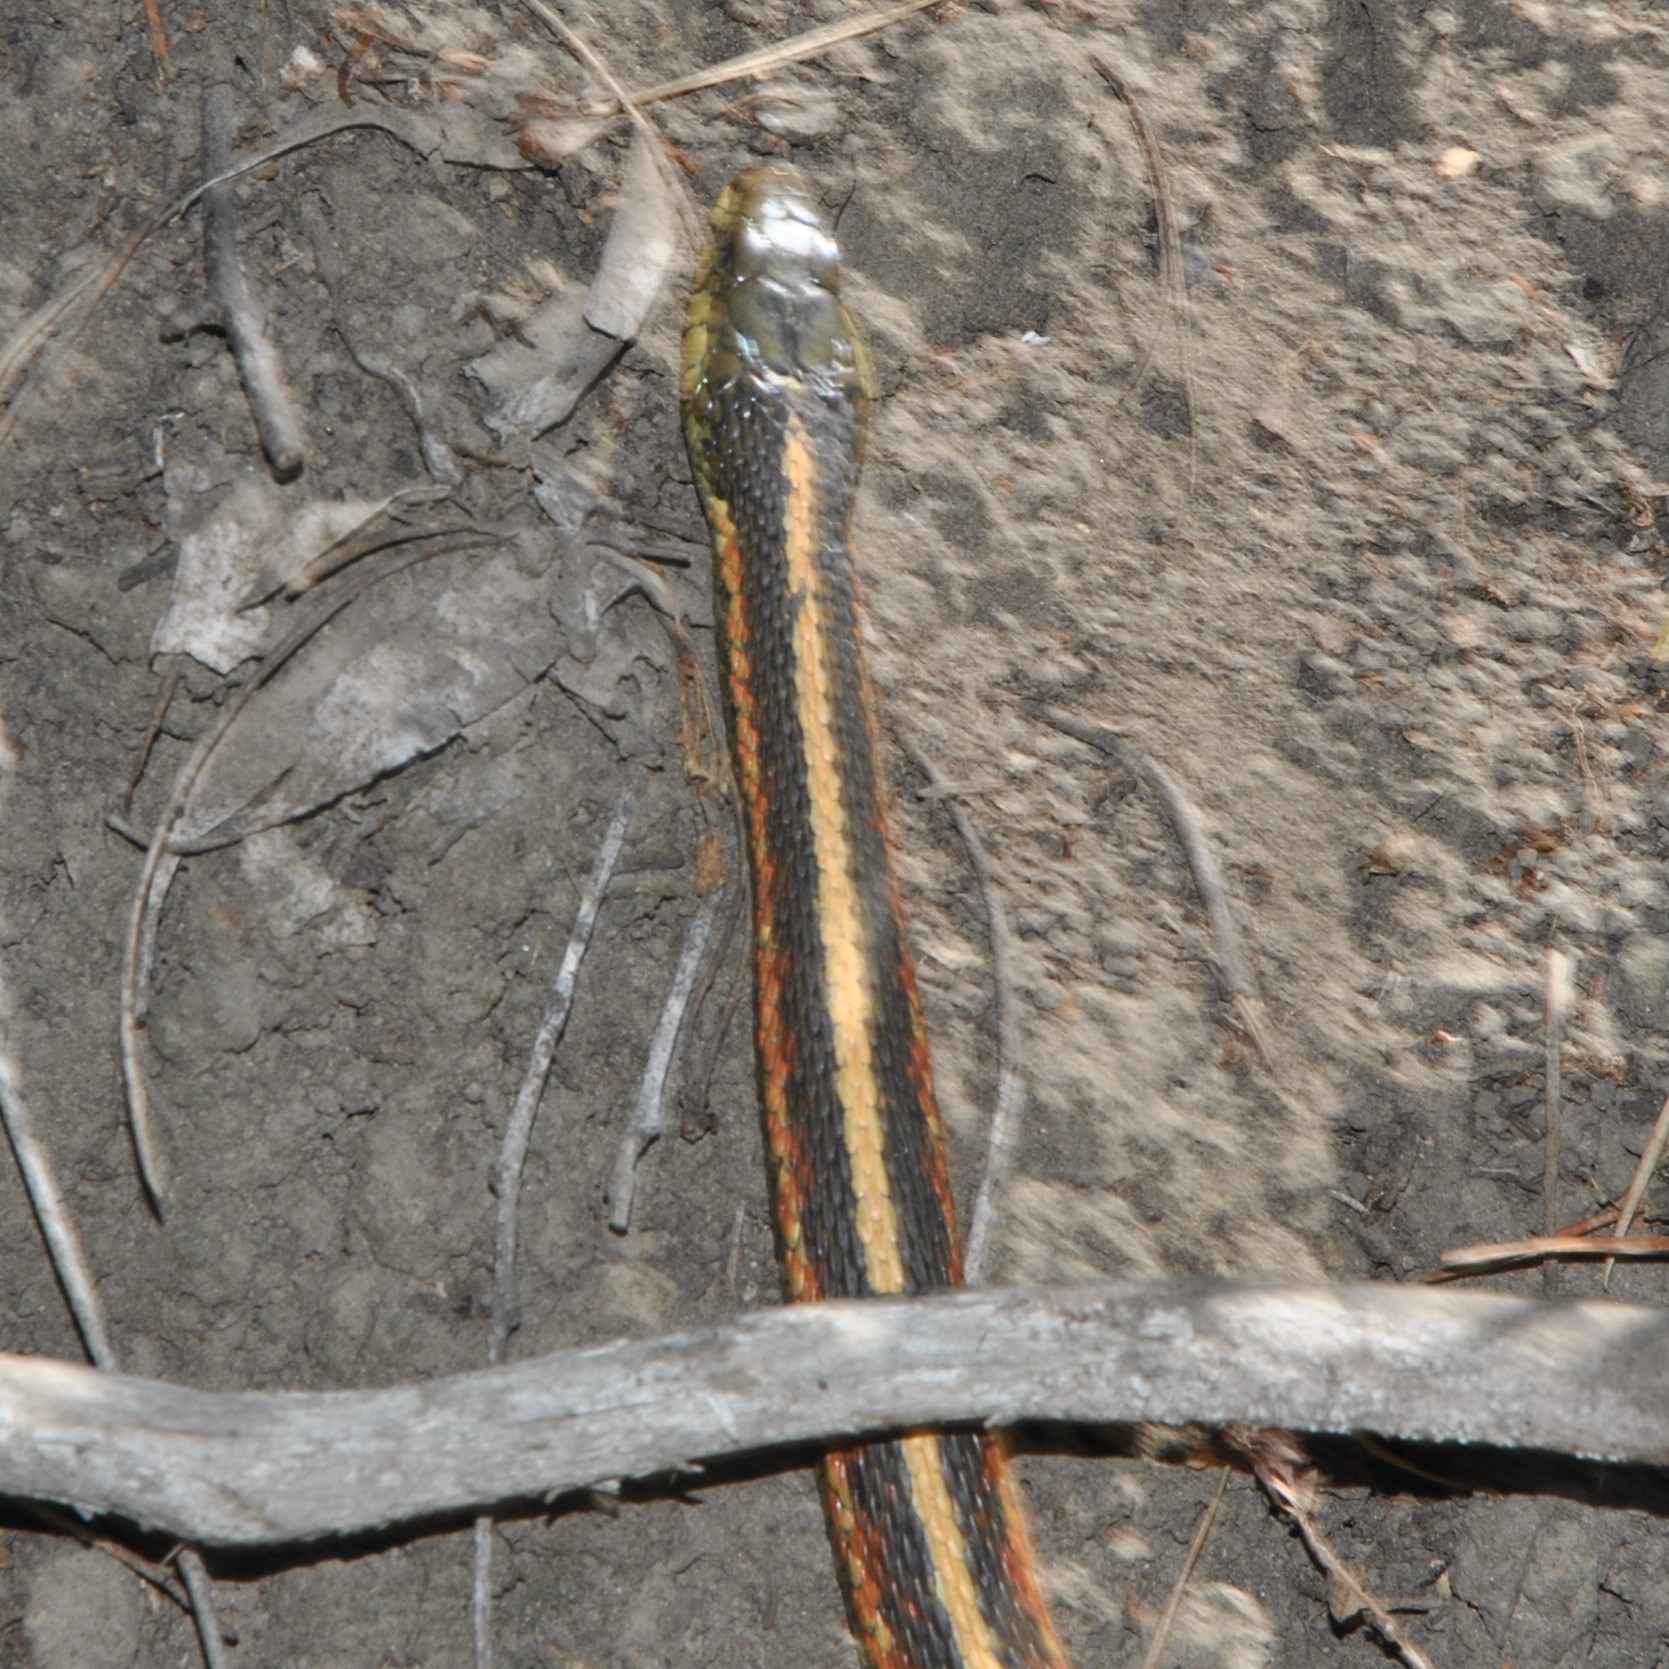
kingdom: Animalia
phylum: Chordata
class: Squamata
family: Colubridae
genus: Thamnophis
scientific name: Thamnophis elegans
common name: Western terrestrial garter snake
